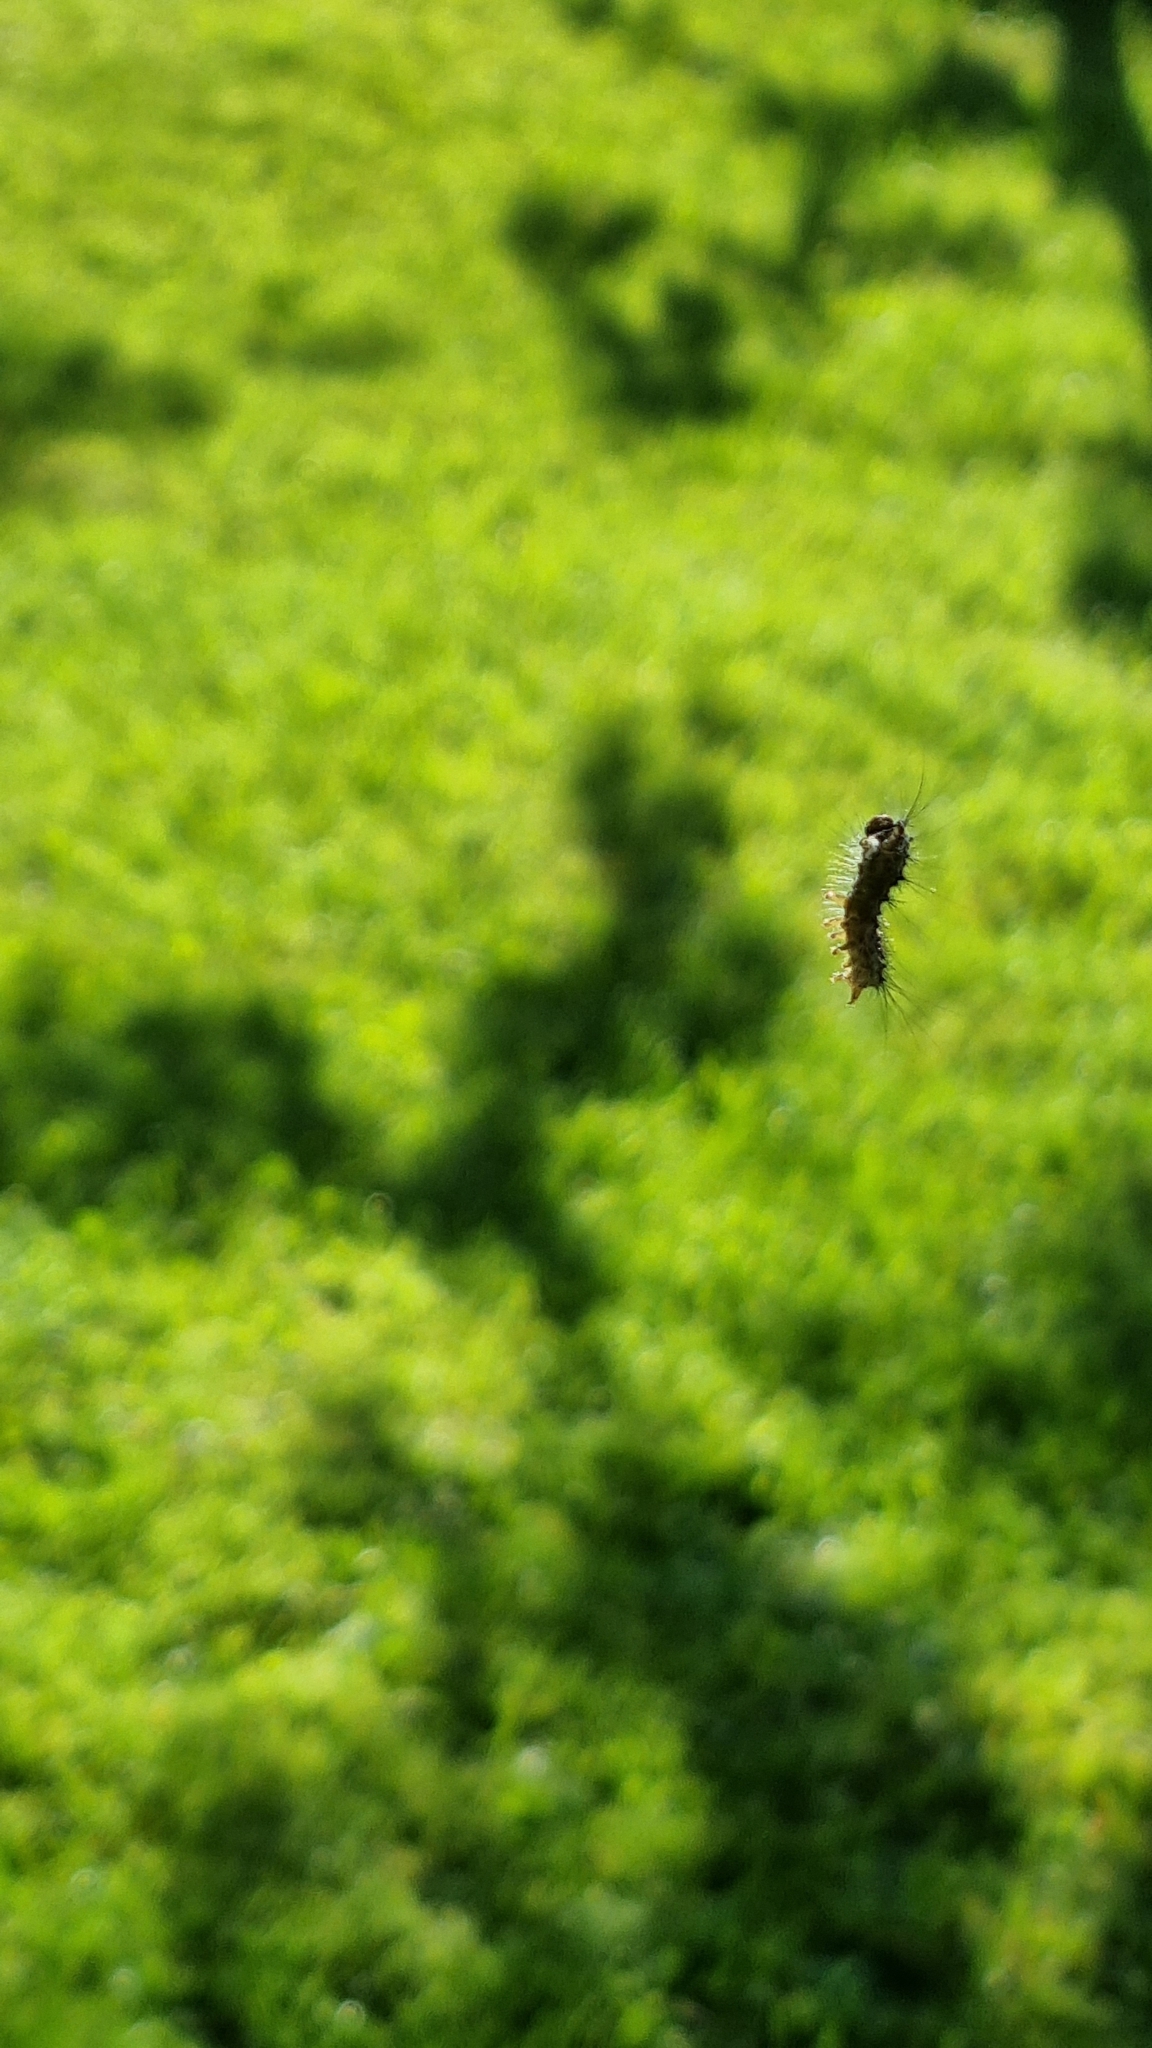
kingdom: Animalia
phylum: Arthropoda
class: Insecta
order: Lepidoptera
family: Erebidae
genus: Lymantria
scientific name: Lymantria monacha
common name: Black arches
